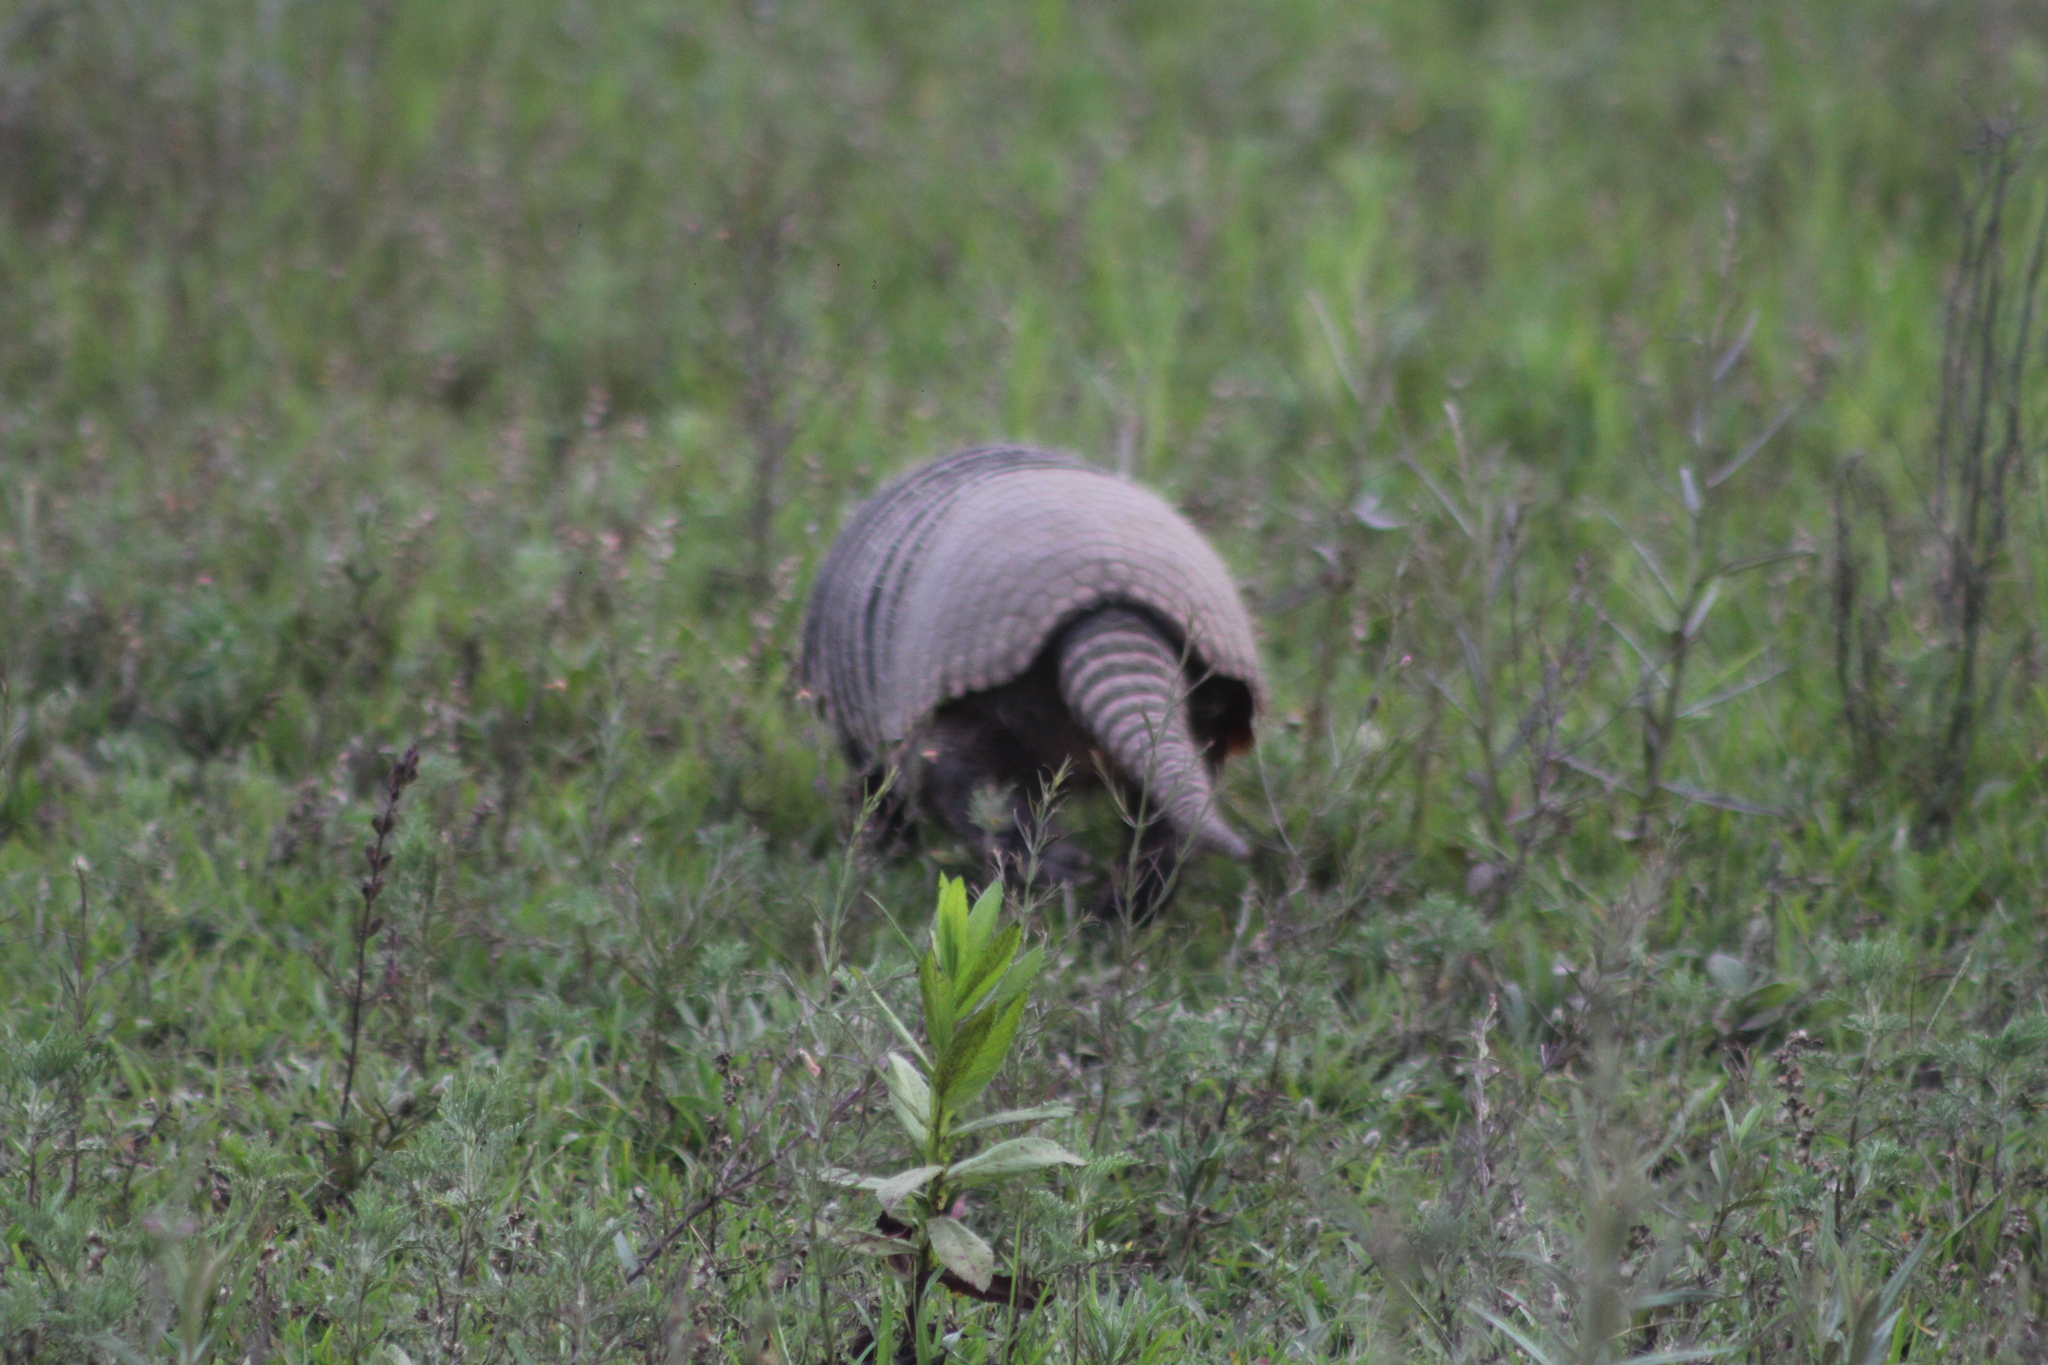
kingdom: Animalia
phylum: Chordata
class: Mammalia
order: Cingulata
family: Dasypodidae
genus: Euphractus
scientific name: Euphractus sexcinctus
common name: Six-banded armadillo
